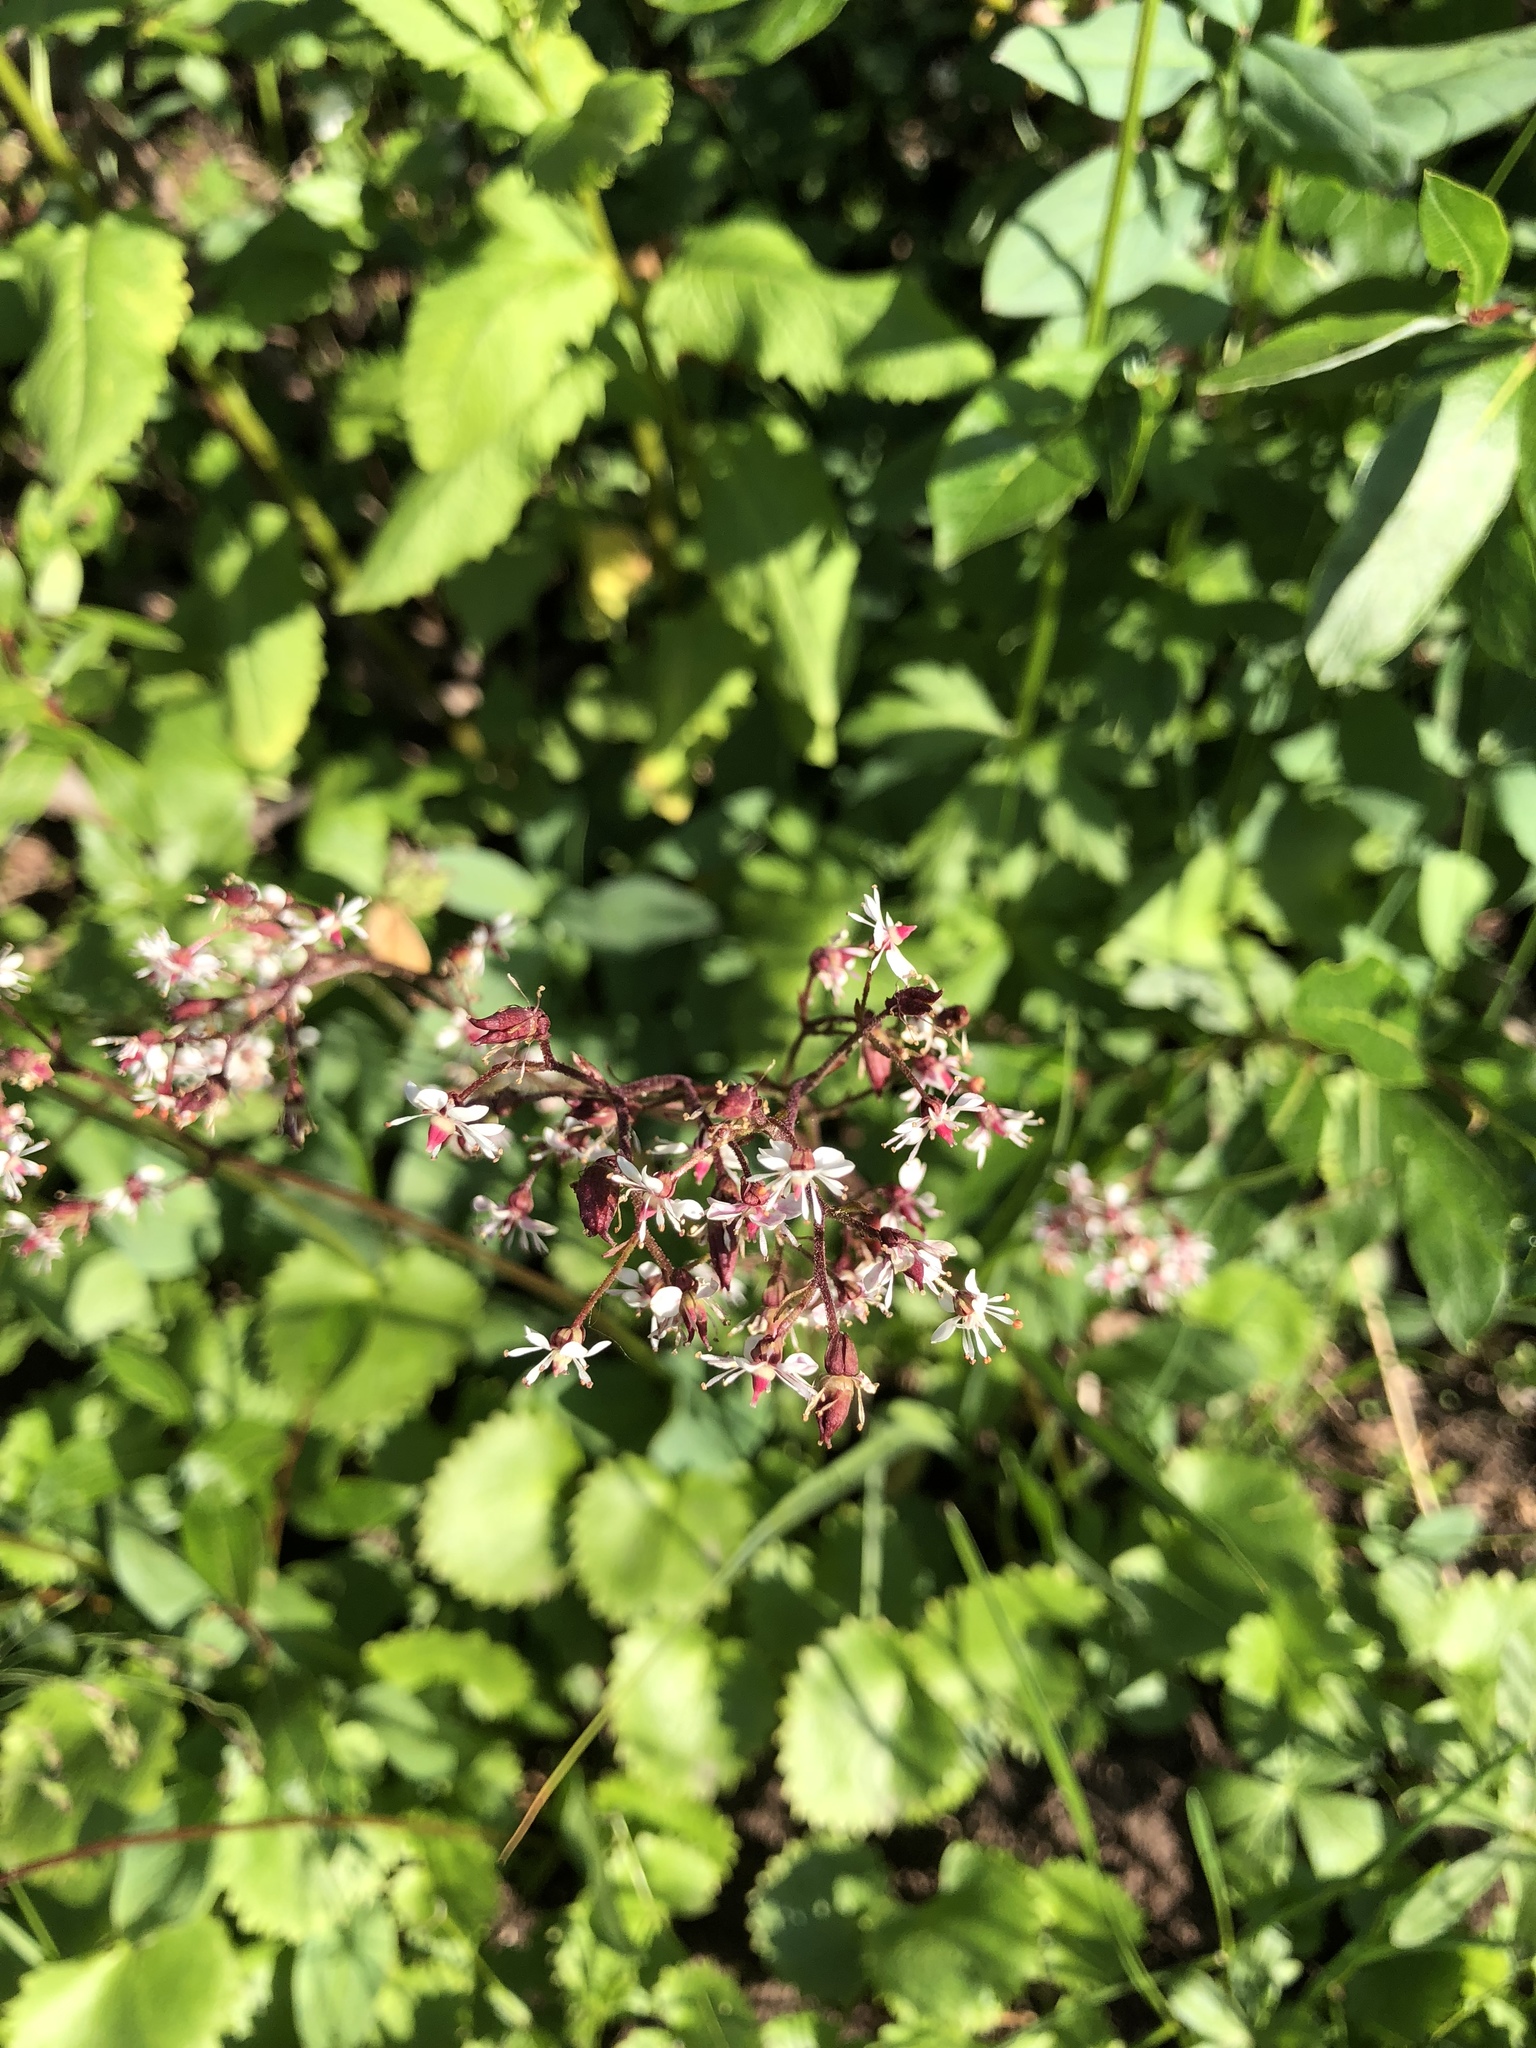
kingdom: Plantae
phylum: Tracheophyta
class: Magnoliopsida
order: Saxifragales
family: Saxifragaceae
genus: Micranthes
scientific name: Micranthes odontoloma
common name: Brook saxifrage
